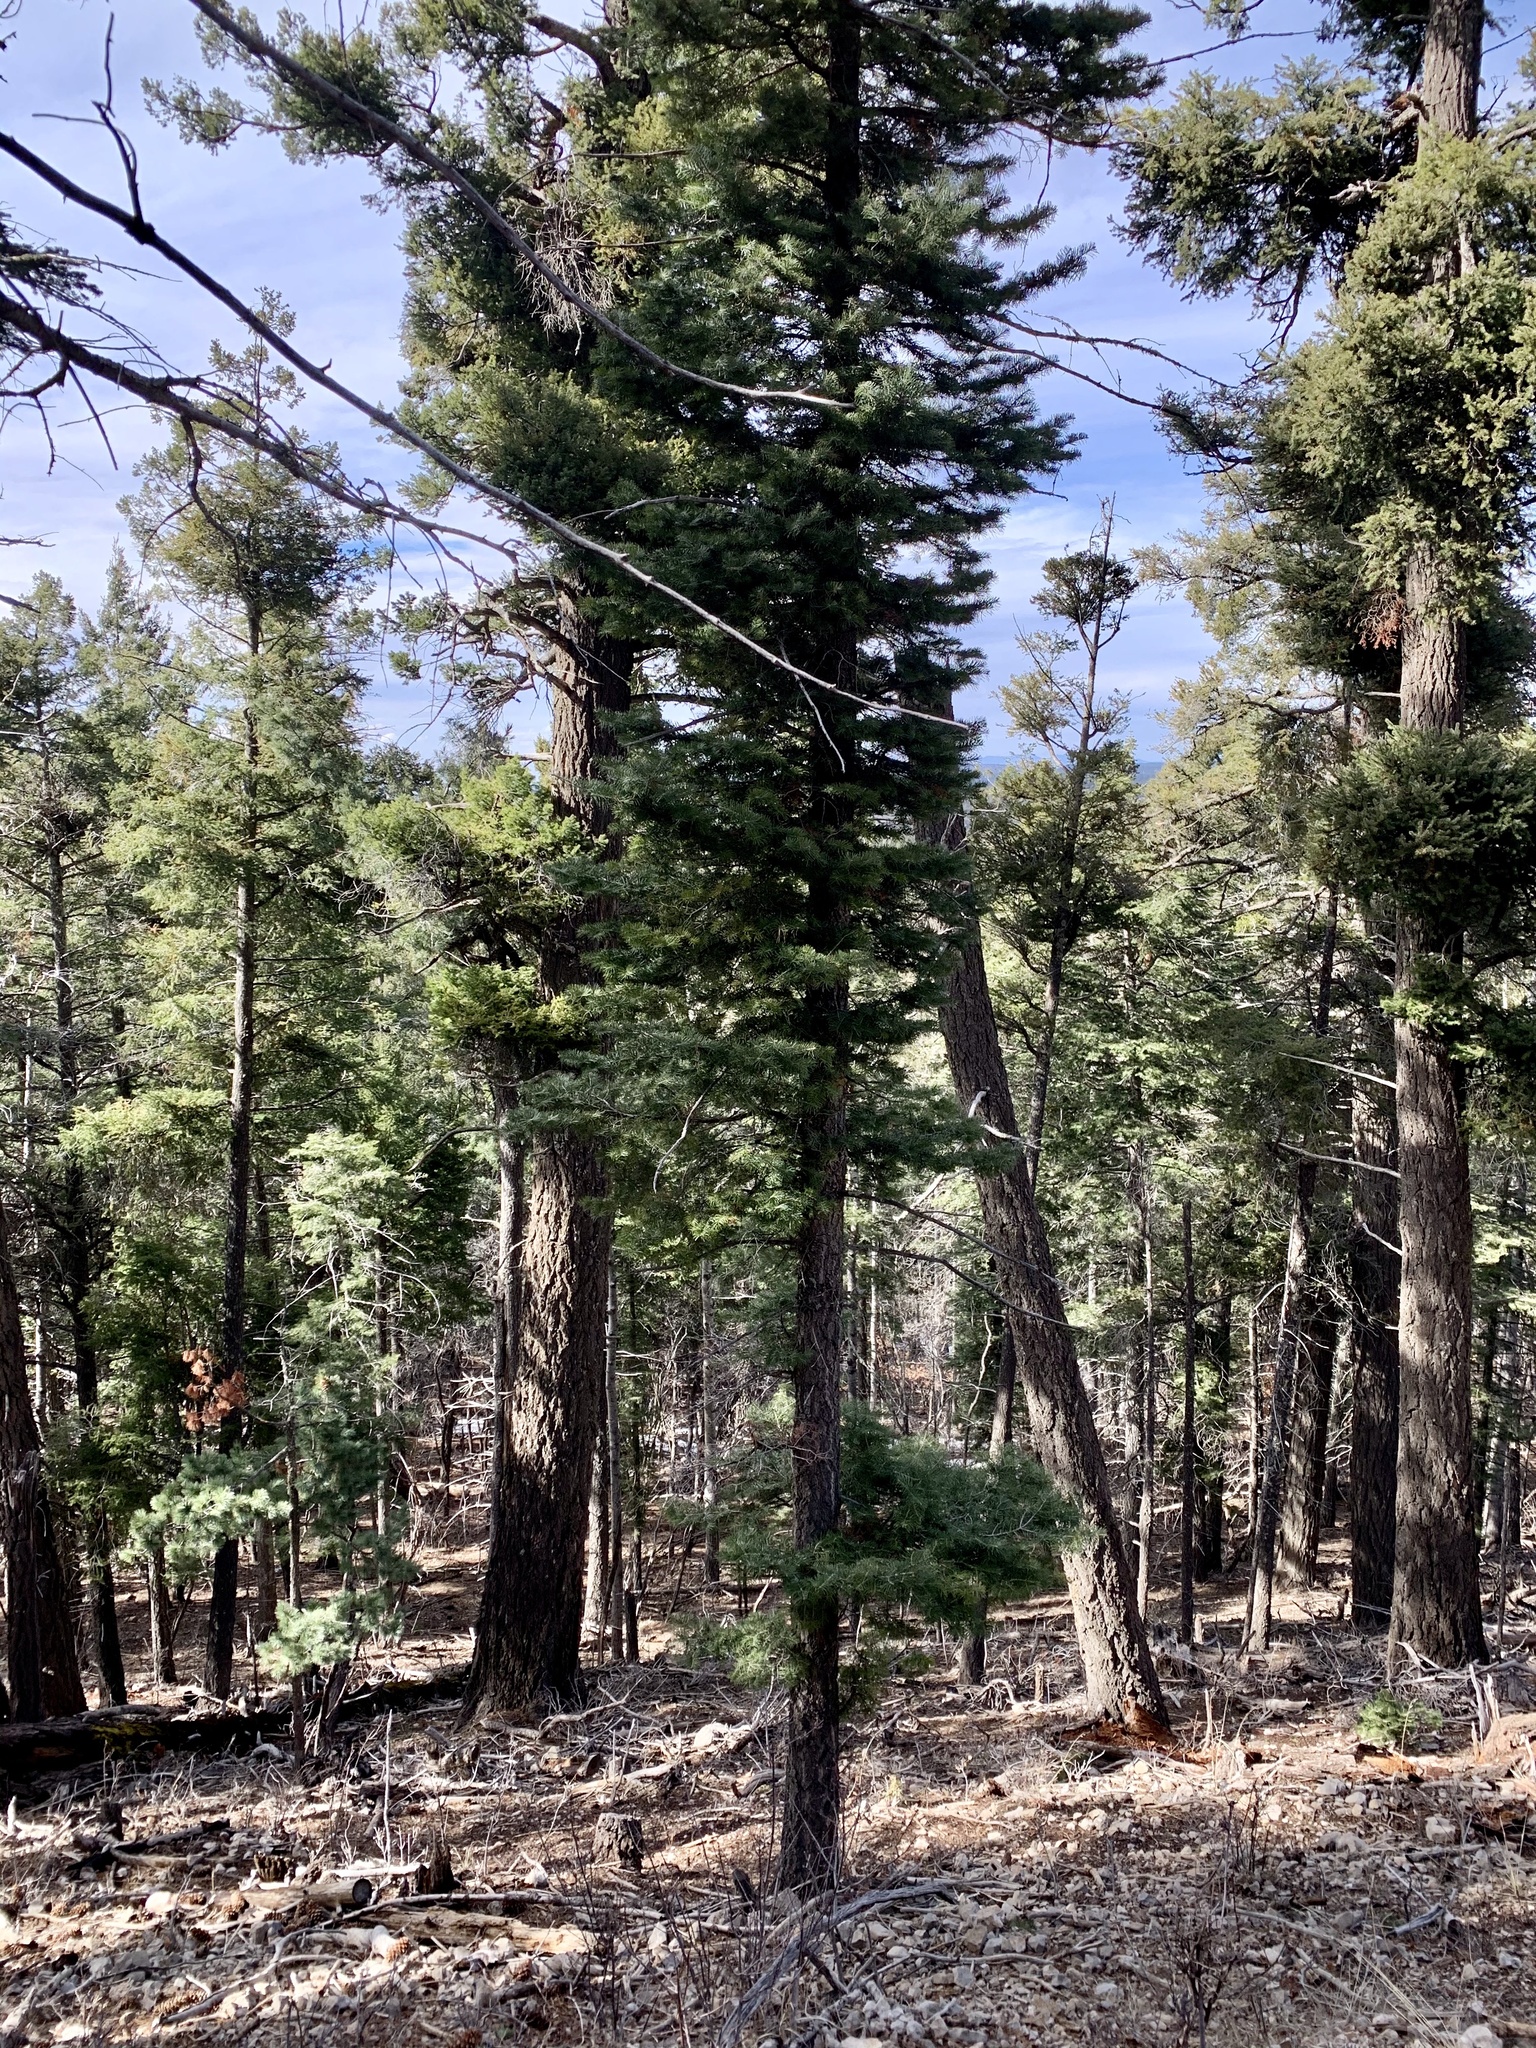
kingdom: Plantae
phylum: Tracheophyta
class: Pinopsida
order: Pinales
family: Pinaceae
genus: Abies
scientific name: Abies concolor
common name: Colorado fir
